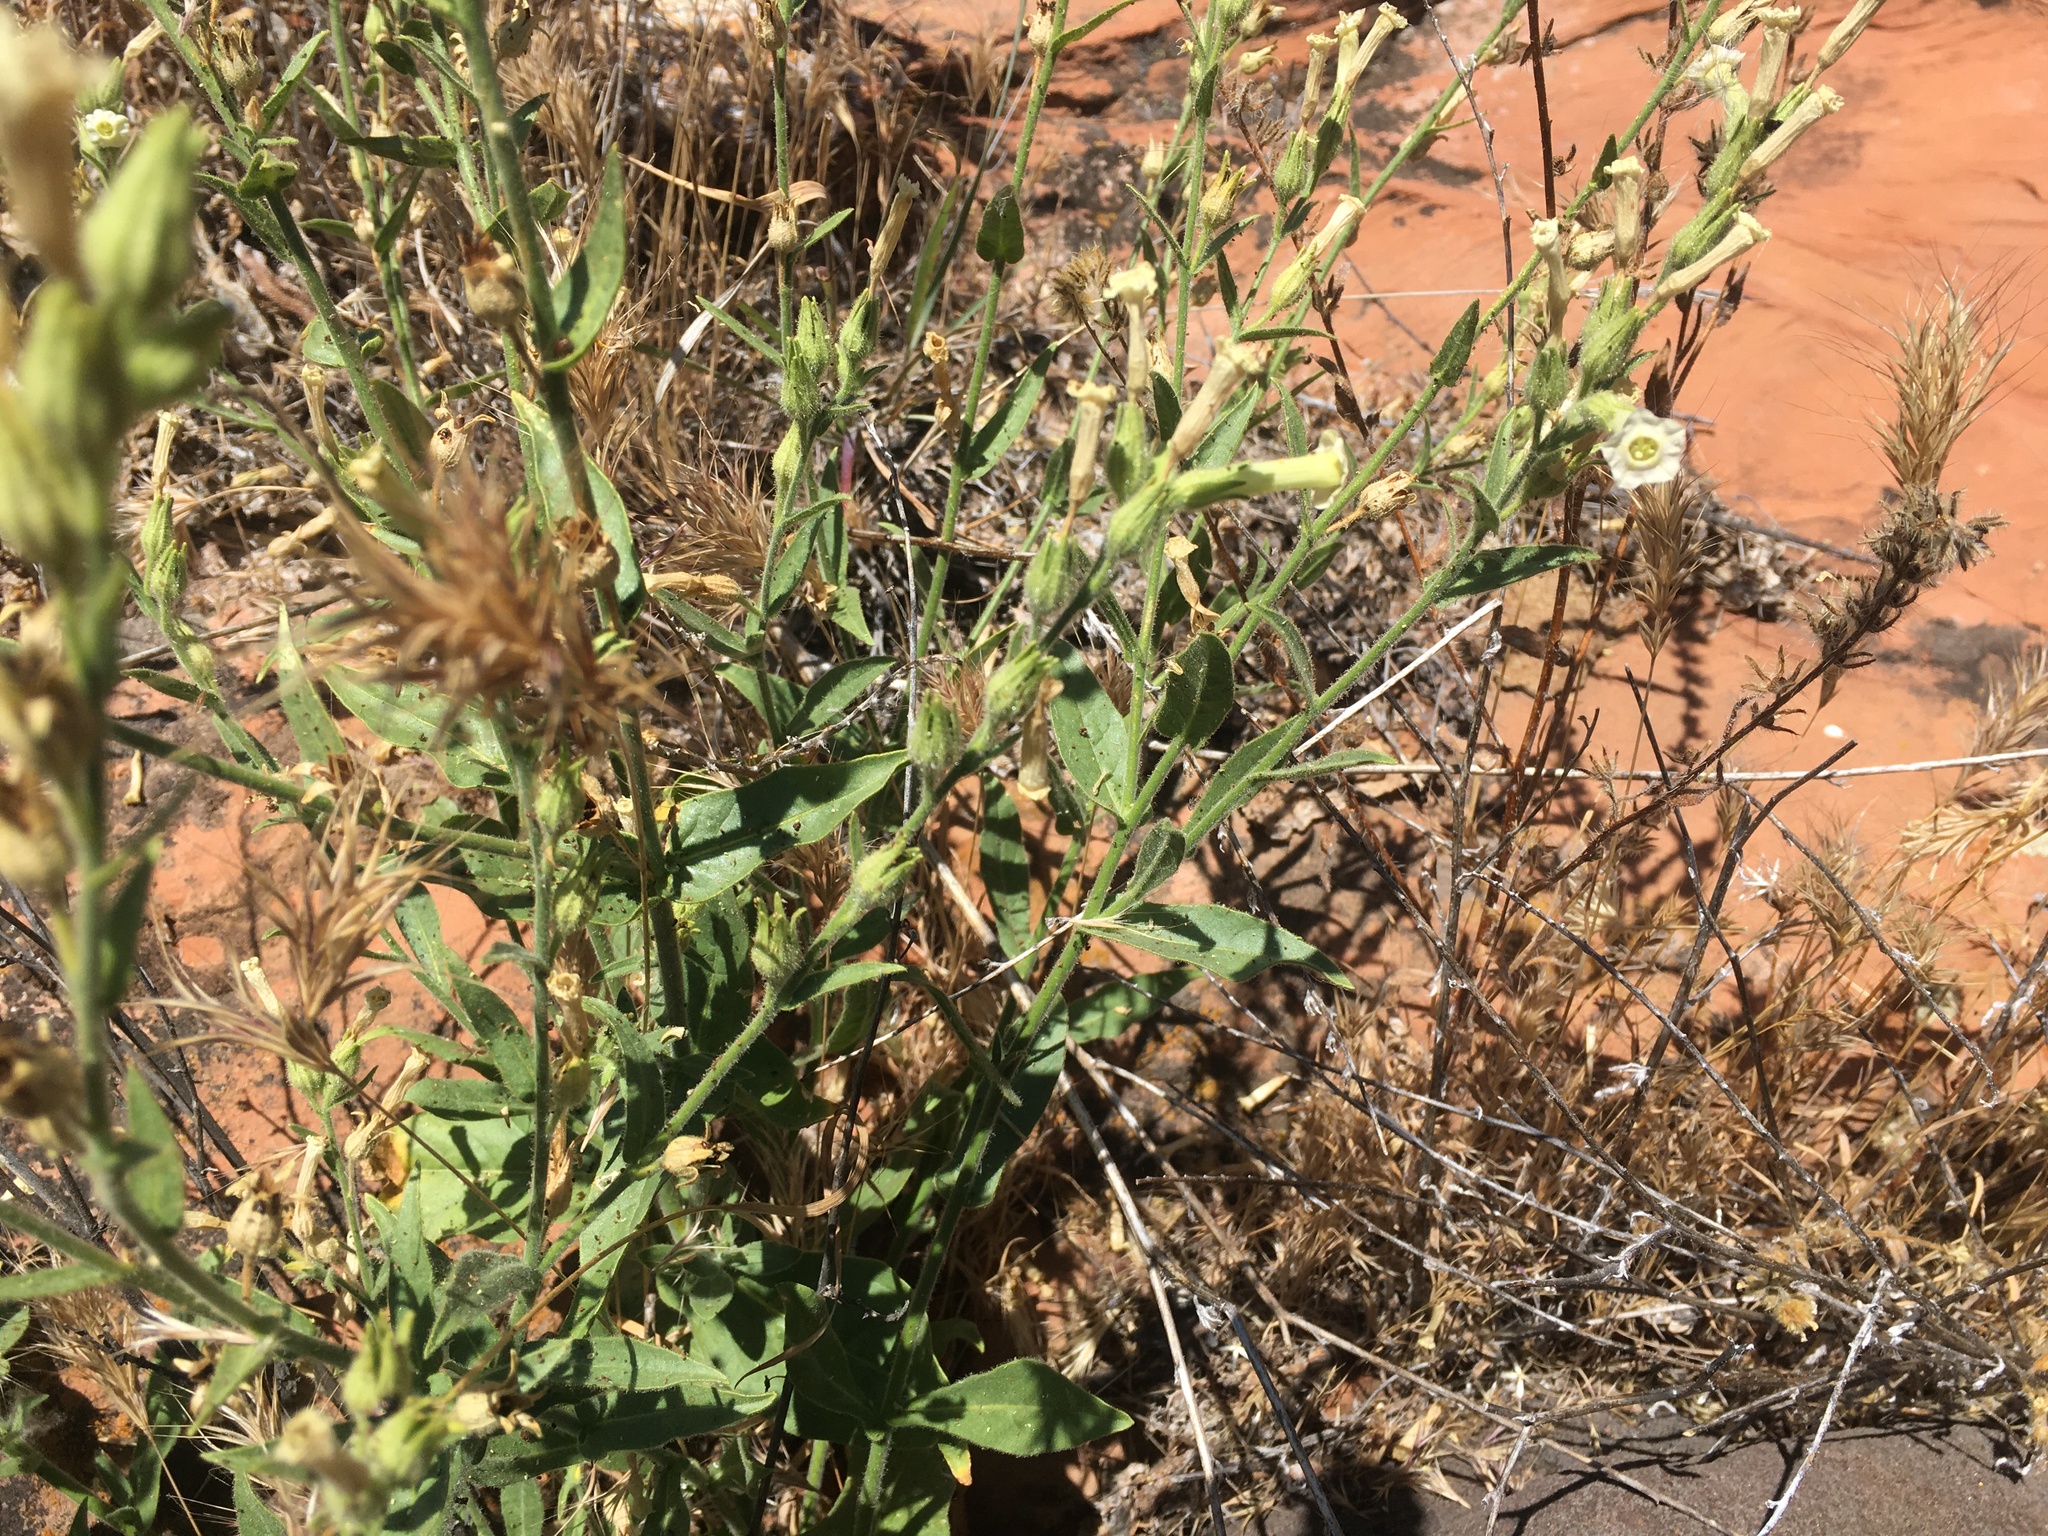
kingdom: Plantae
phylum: Tracheophyta
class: Magnoliopsida
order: Solanales
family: Solanaceae
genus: Nicotiana
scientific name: Nicotiana obtusifolia
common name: Desert tobacco
